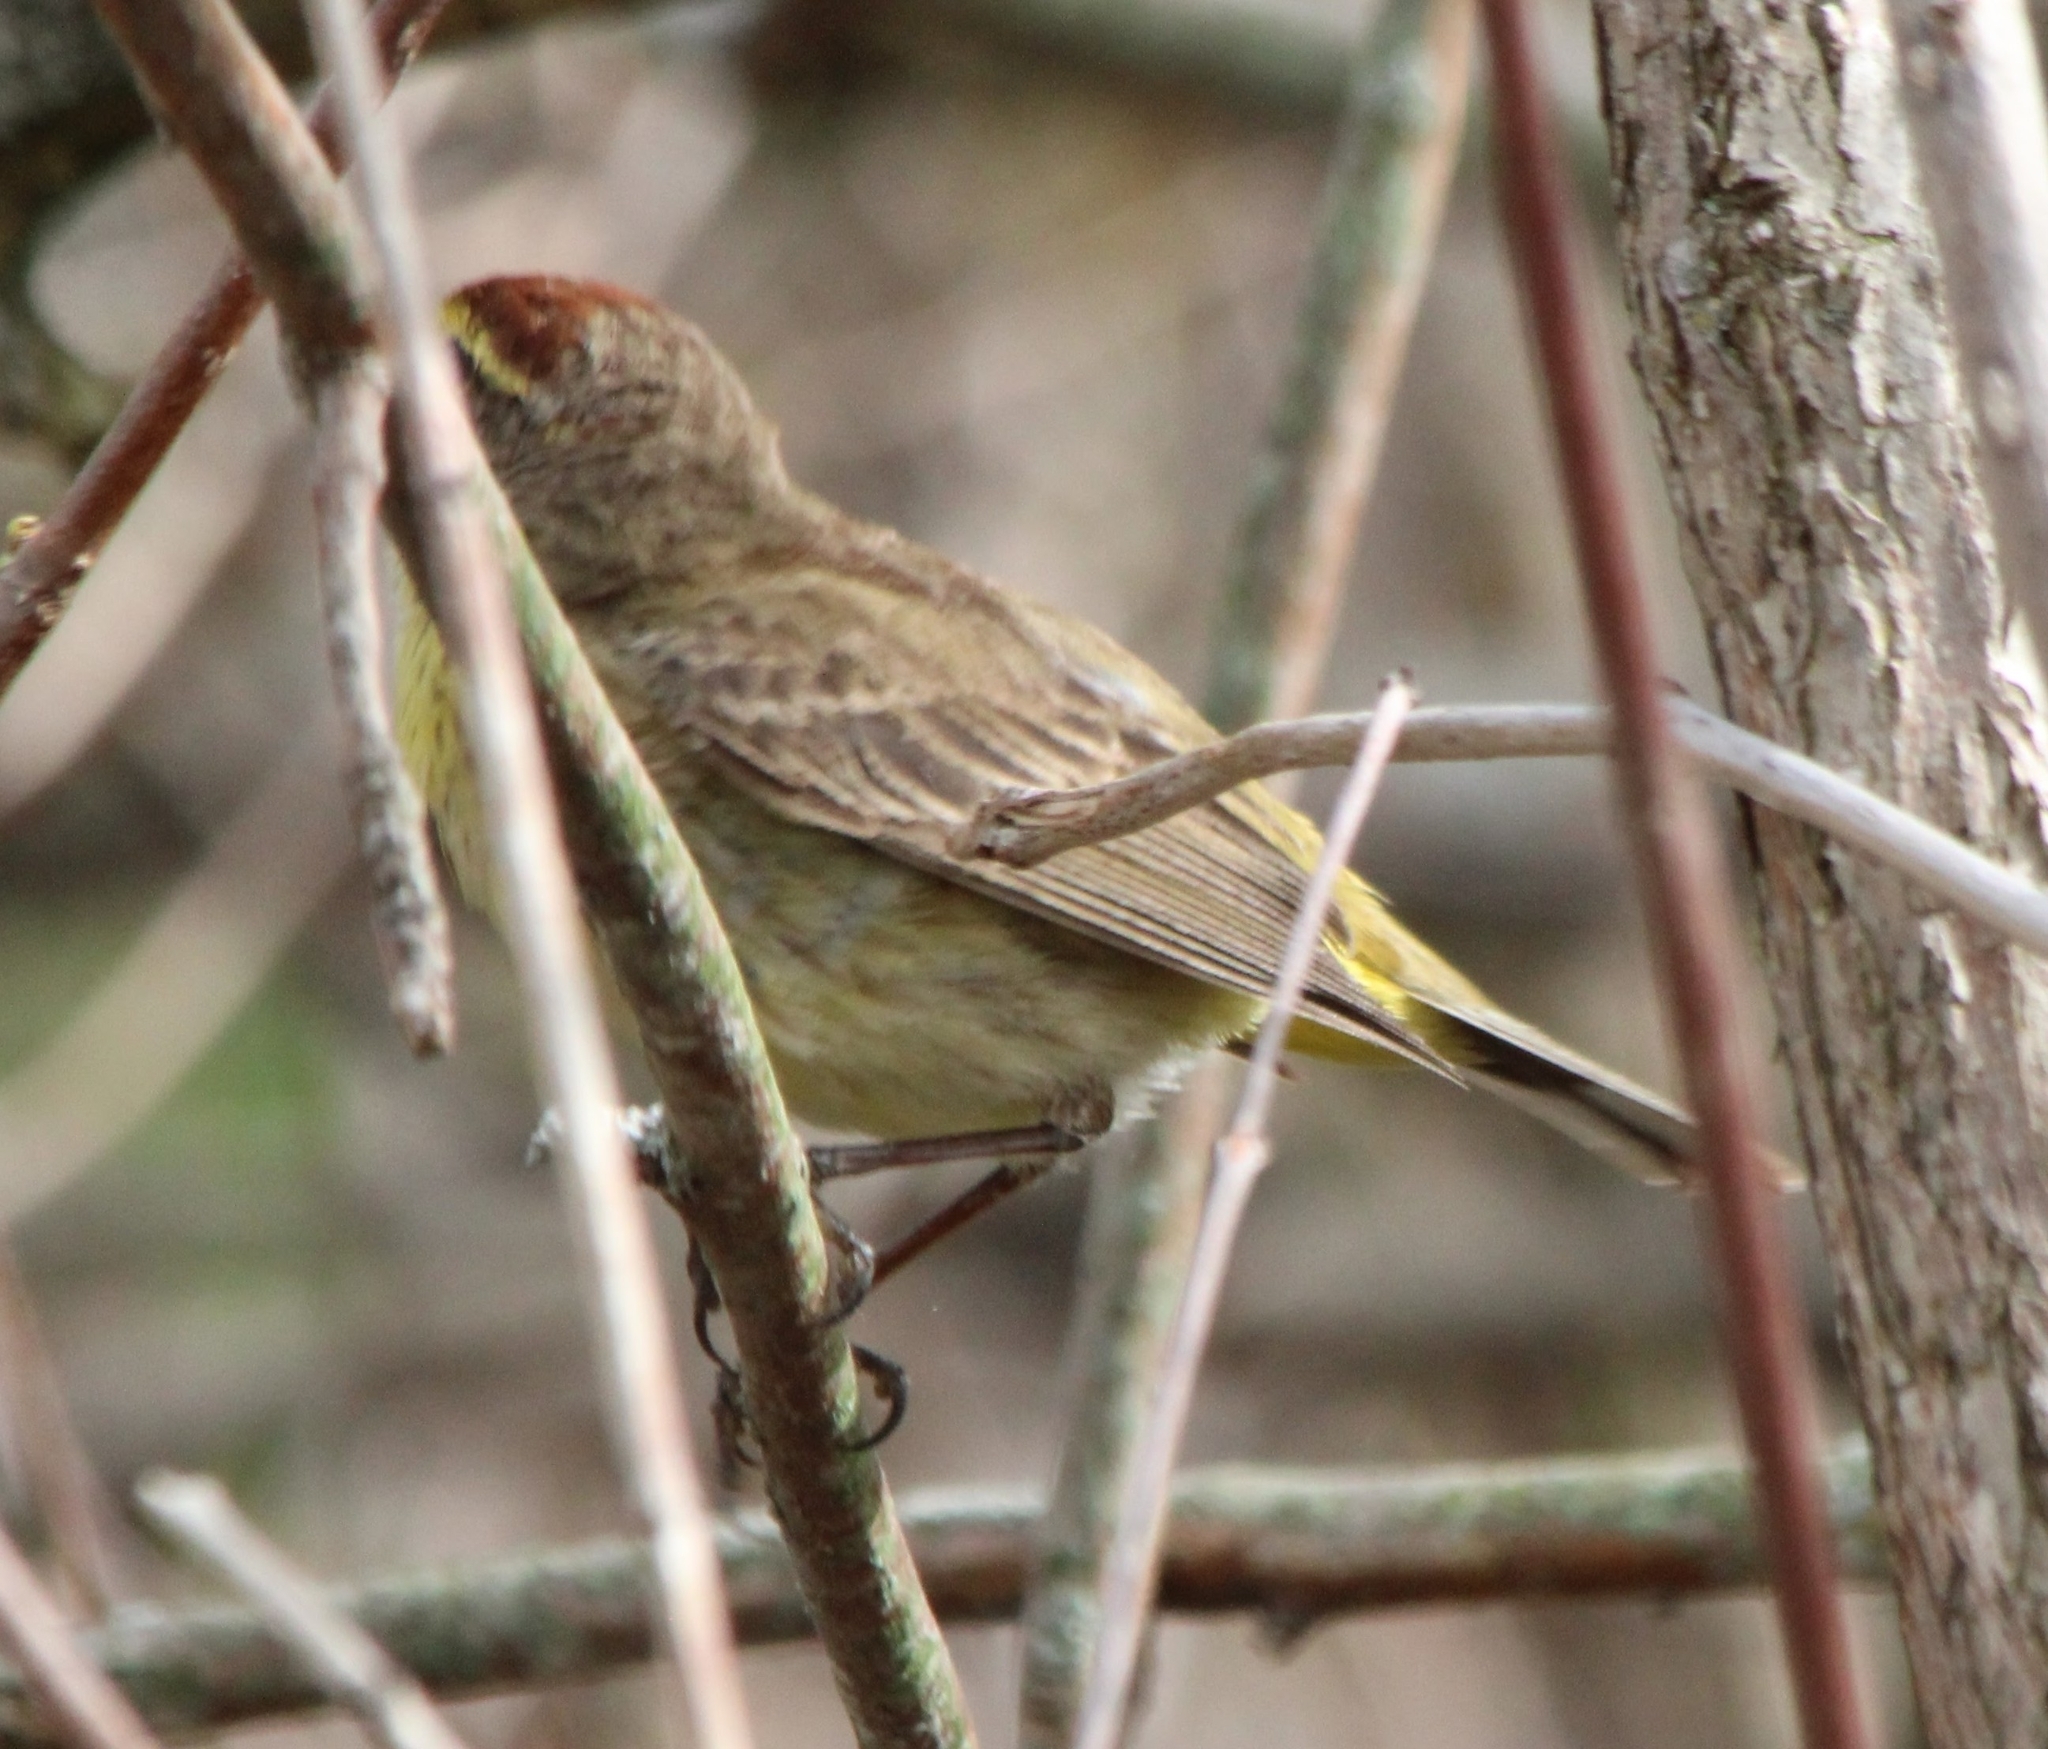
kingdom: Animalia
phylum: Chordata
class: Aves
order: Passeriformes
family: Parulidae
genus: Setophaga
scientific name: Setophaga palmarum
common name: Palm warbler
